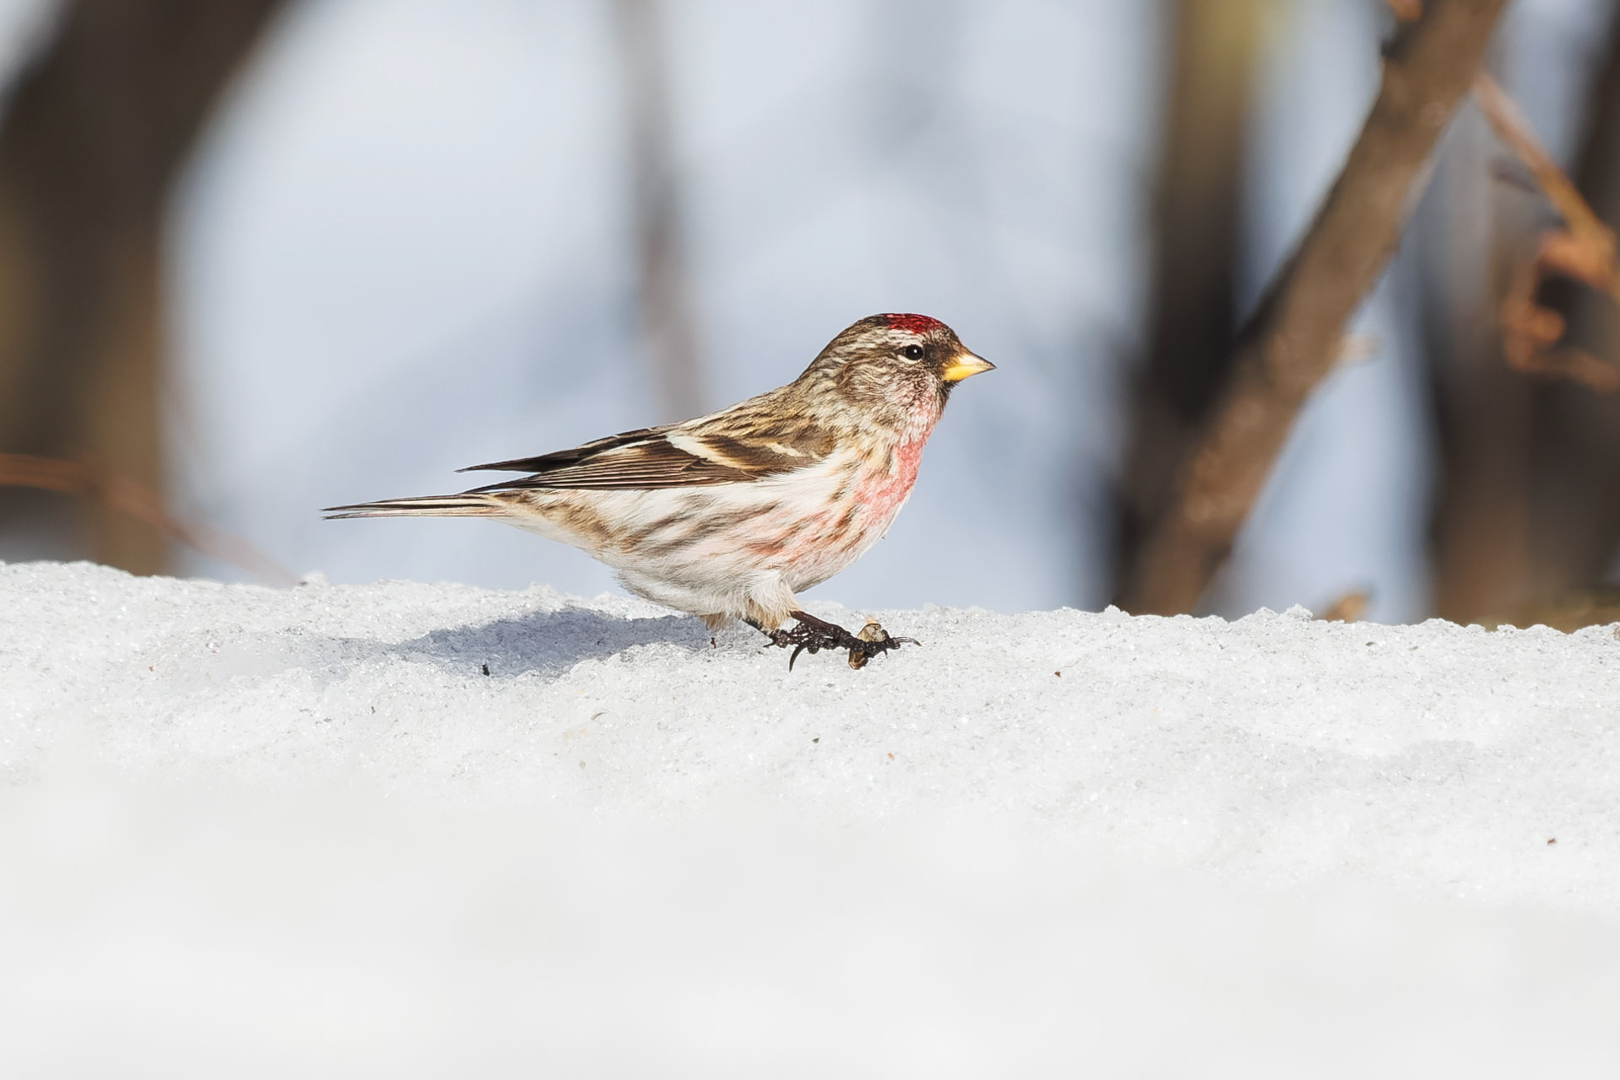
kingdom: Animalia
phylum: Chordata
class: Aves
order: Passeriformes
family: Fringillidae
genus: Acanthis
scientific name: Acanthis flammea
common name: Common redpoll
